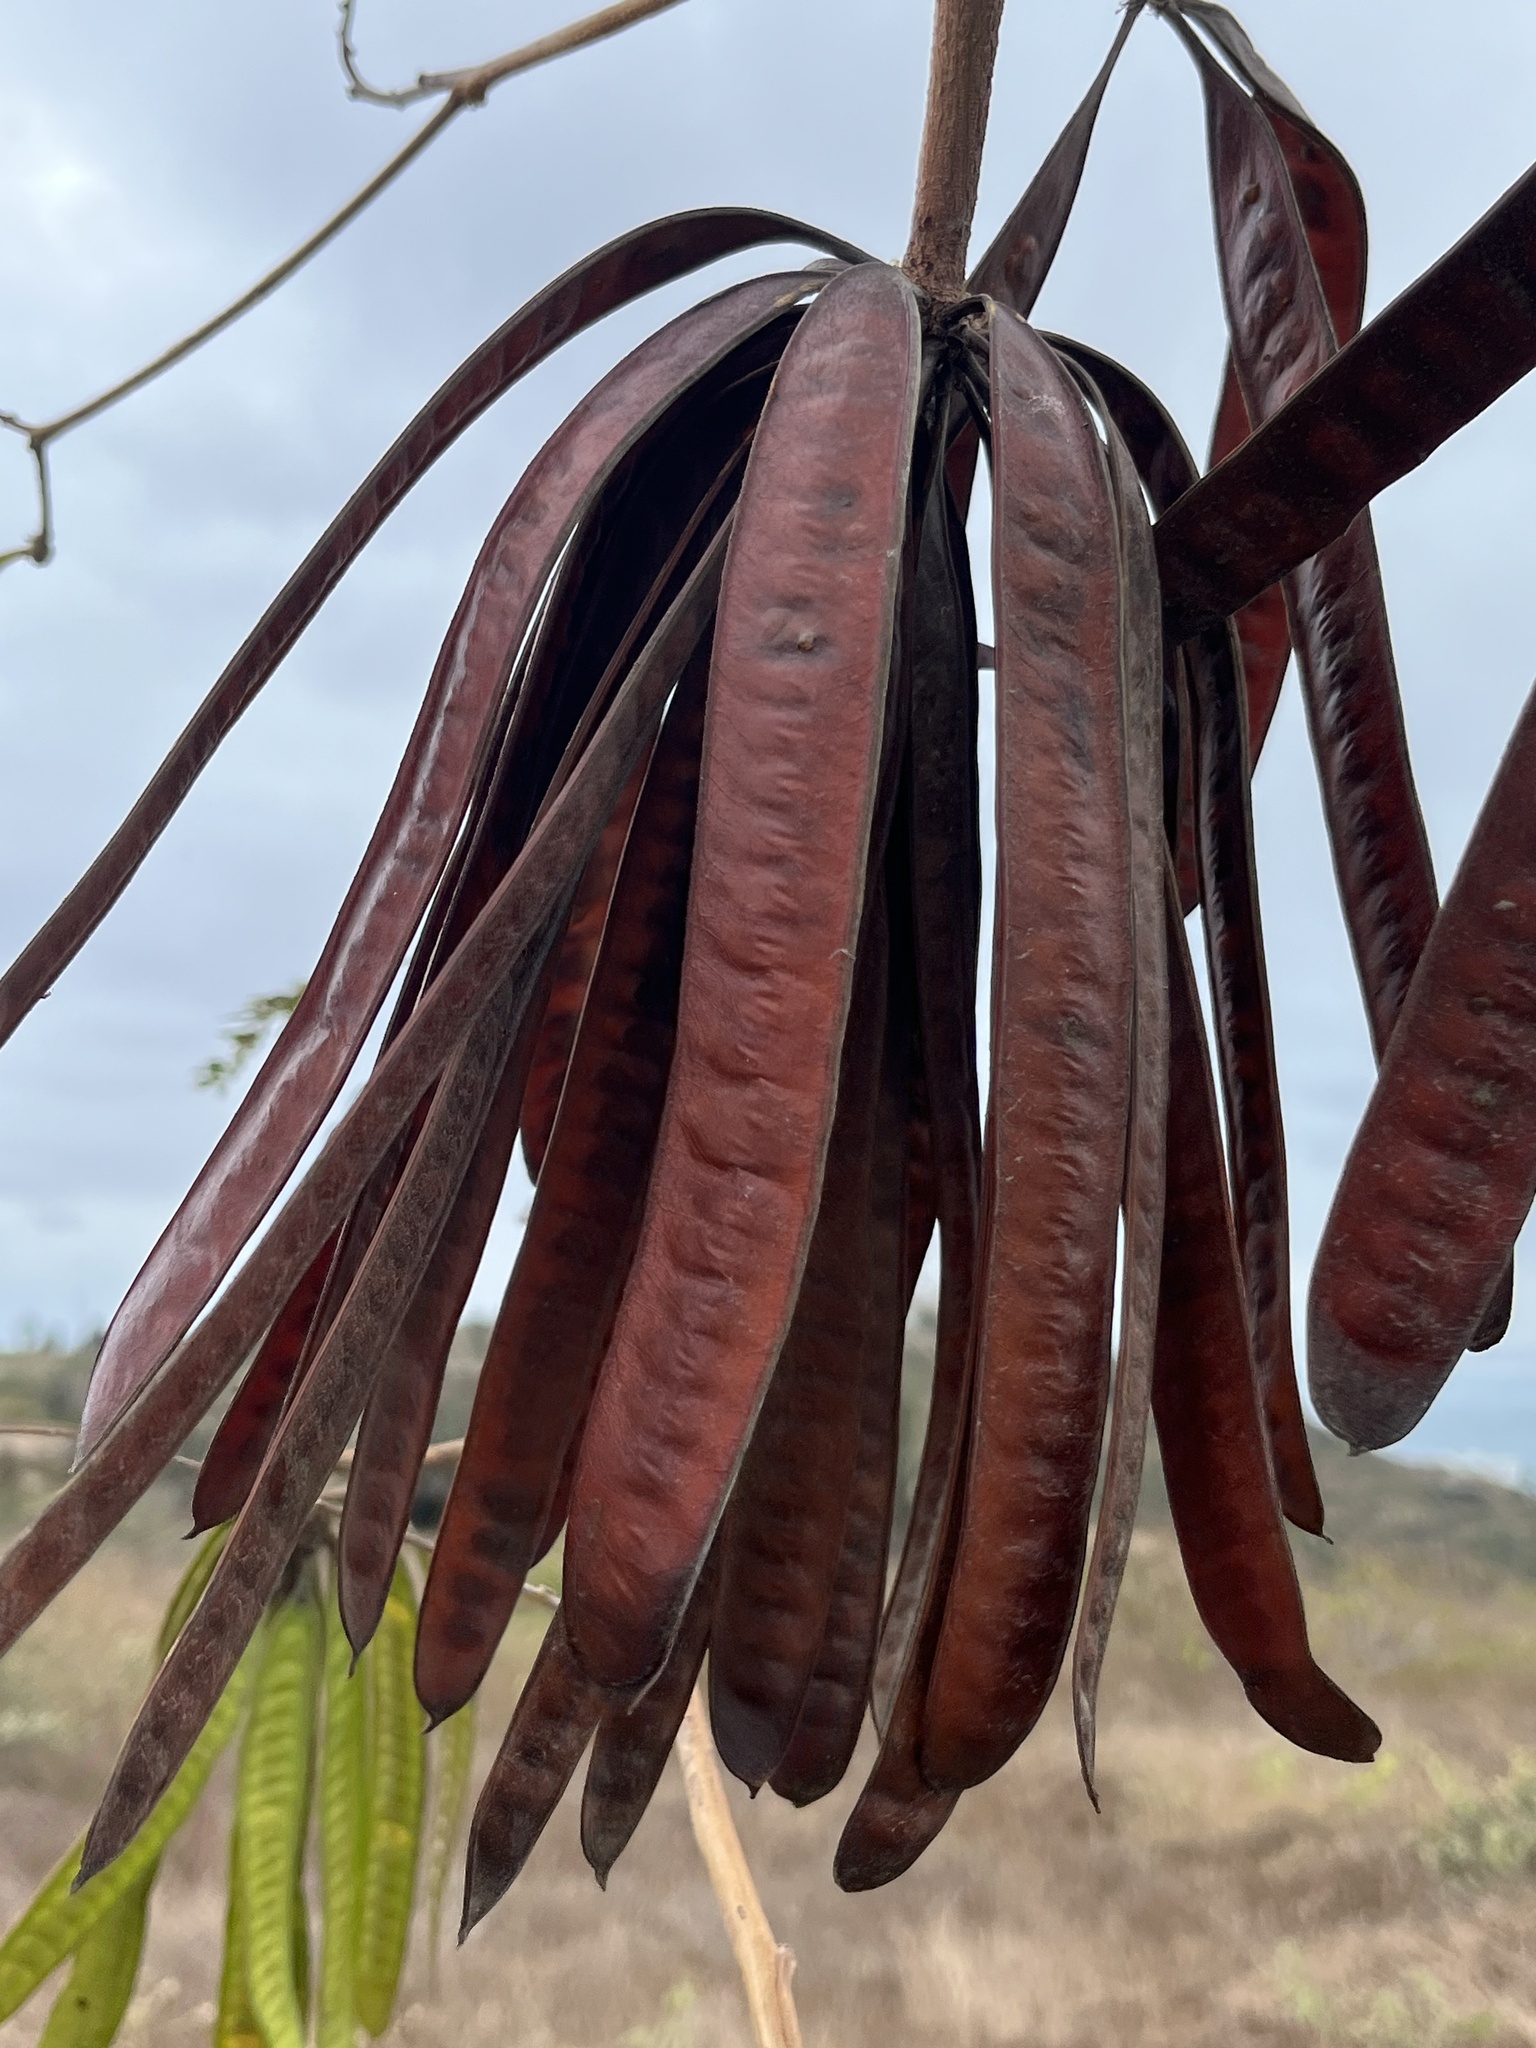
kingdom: Plantae
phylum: Tracheophyta
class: Magnoliopsida
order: Fabales
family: Fabaceae
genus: Leucaena
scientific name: Leucaena leucocephala
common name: White leadtree
